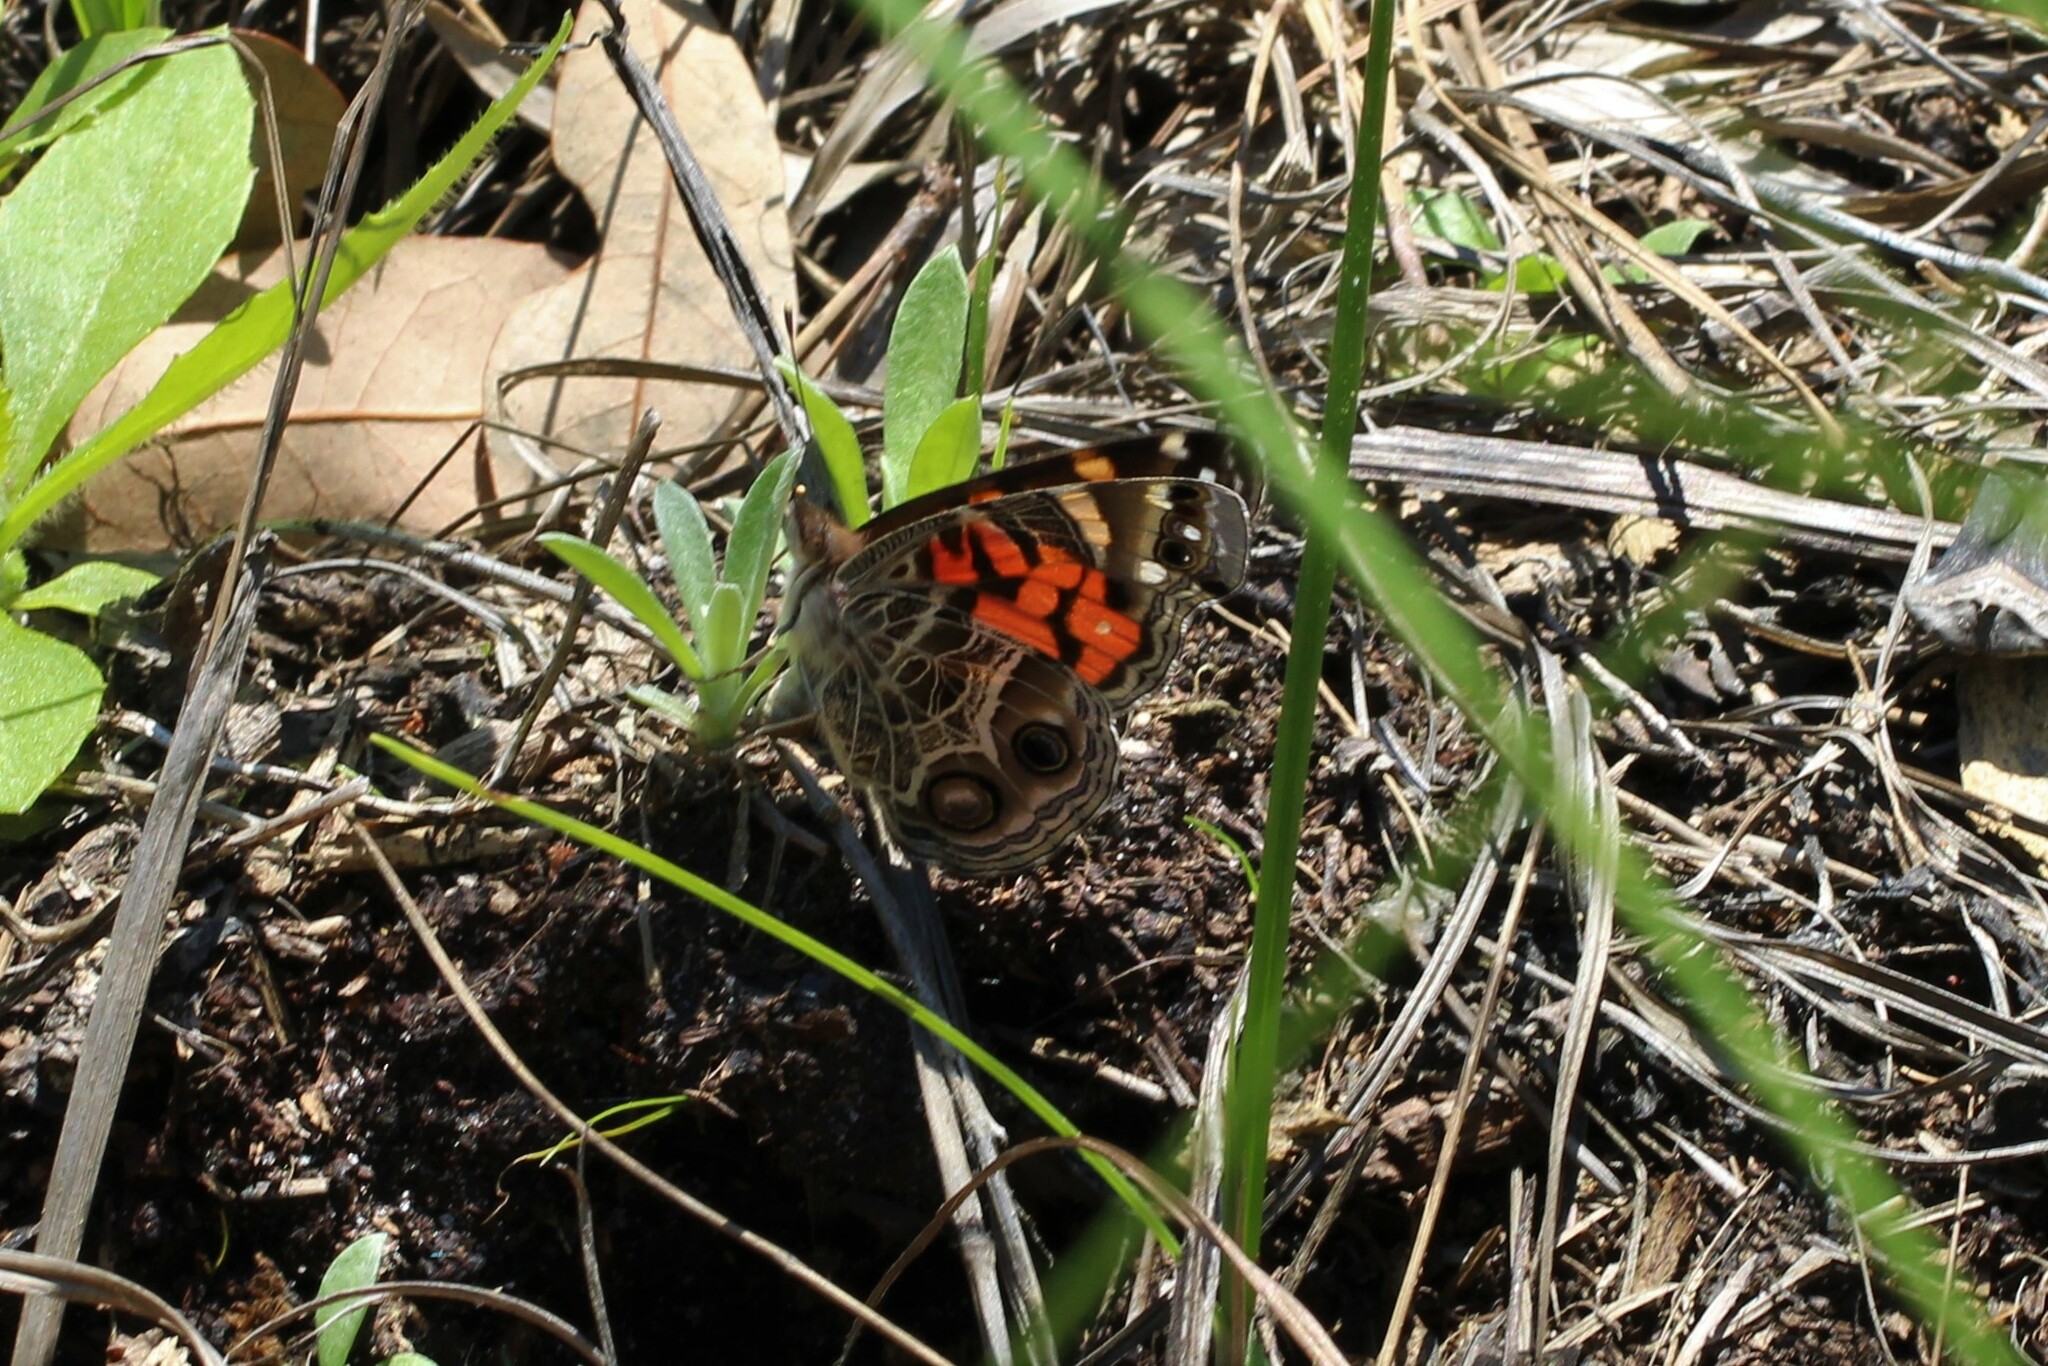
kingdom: Animalia
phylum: Arthropoda
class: Insecta
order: Lepidoptera
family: Nymphalidae
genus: Vanessa
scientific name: Vanessa virginiensis
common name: American lady
